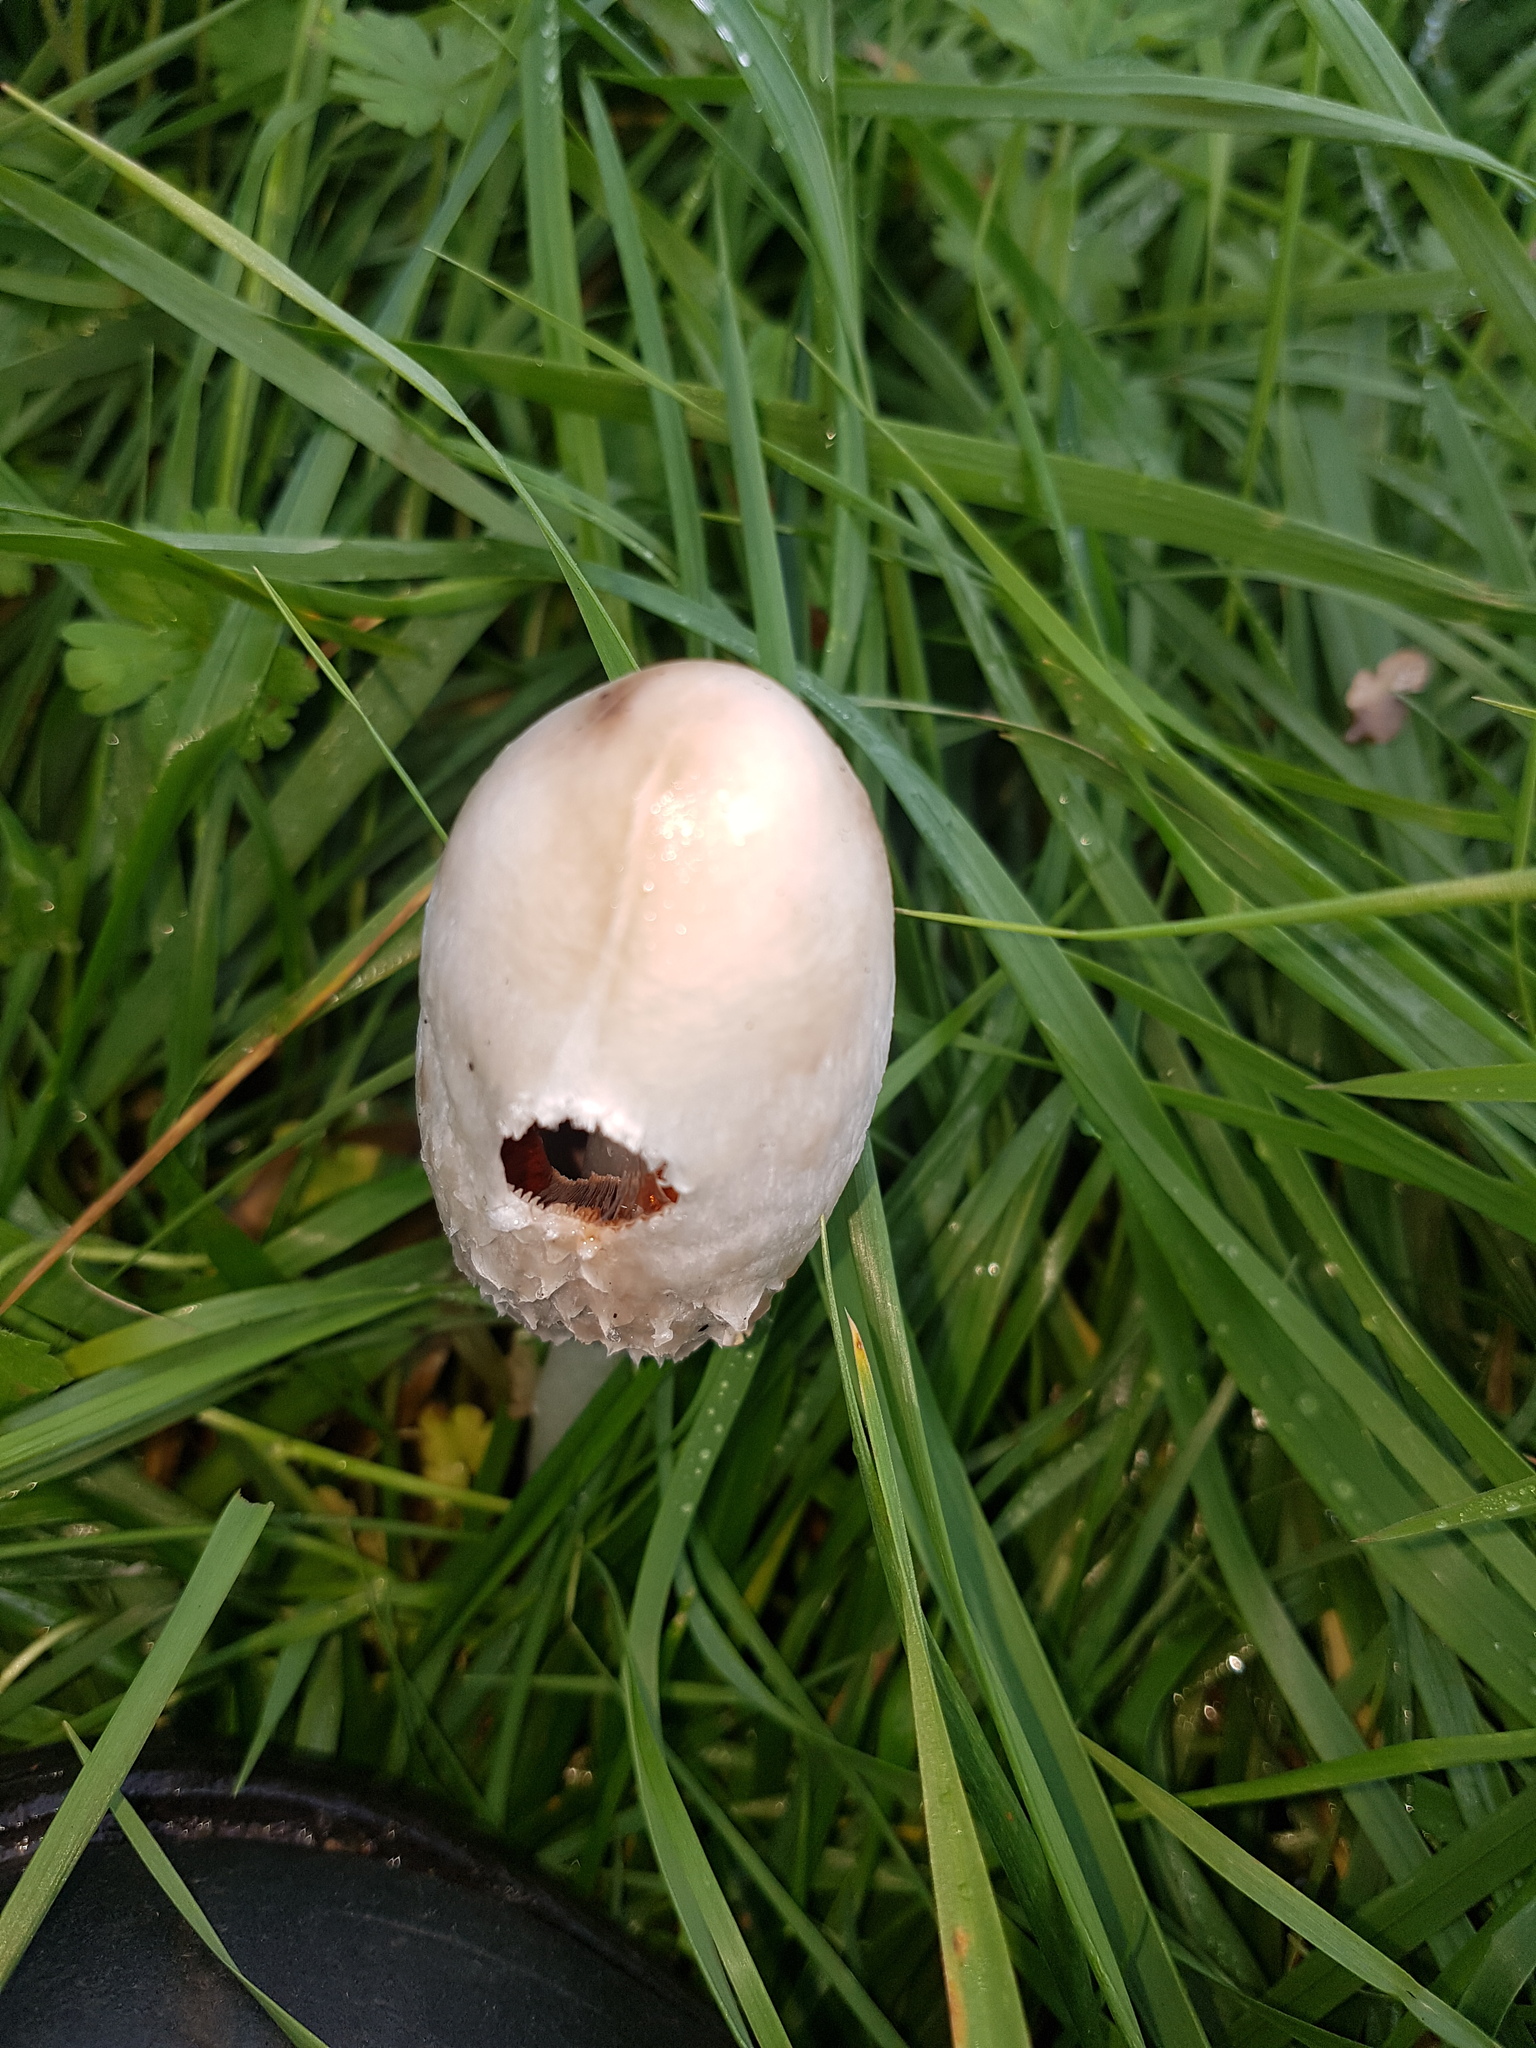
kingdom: Fungi
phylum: Basidiomycota
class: Agaricomycetes
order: Agaricales
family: Agaricaceae
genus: Coprinus
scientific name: Coprinus comatus
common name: Lawyer's wig
